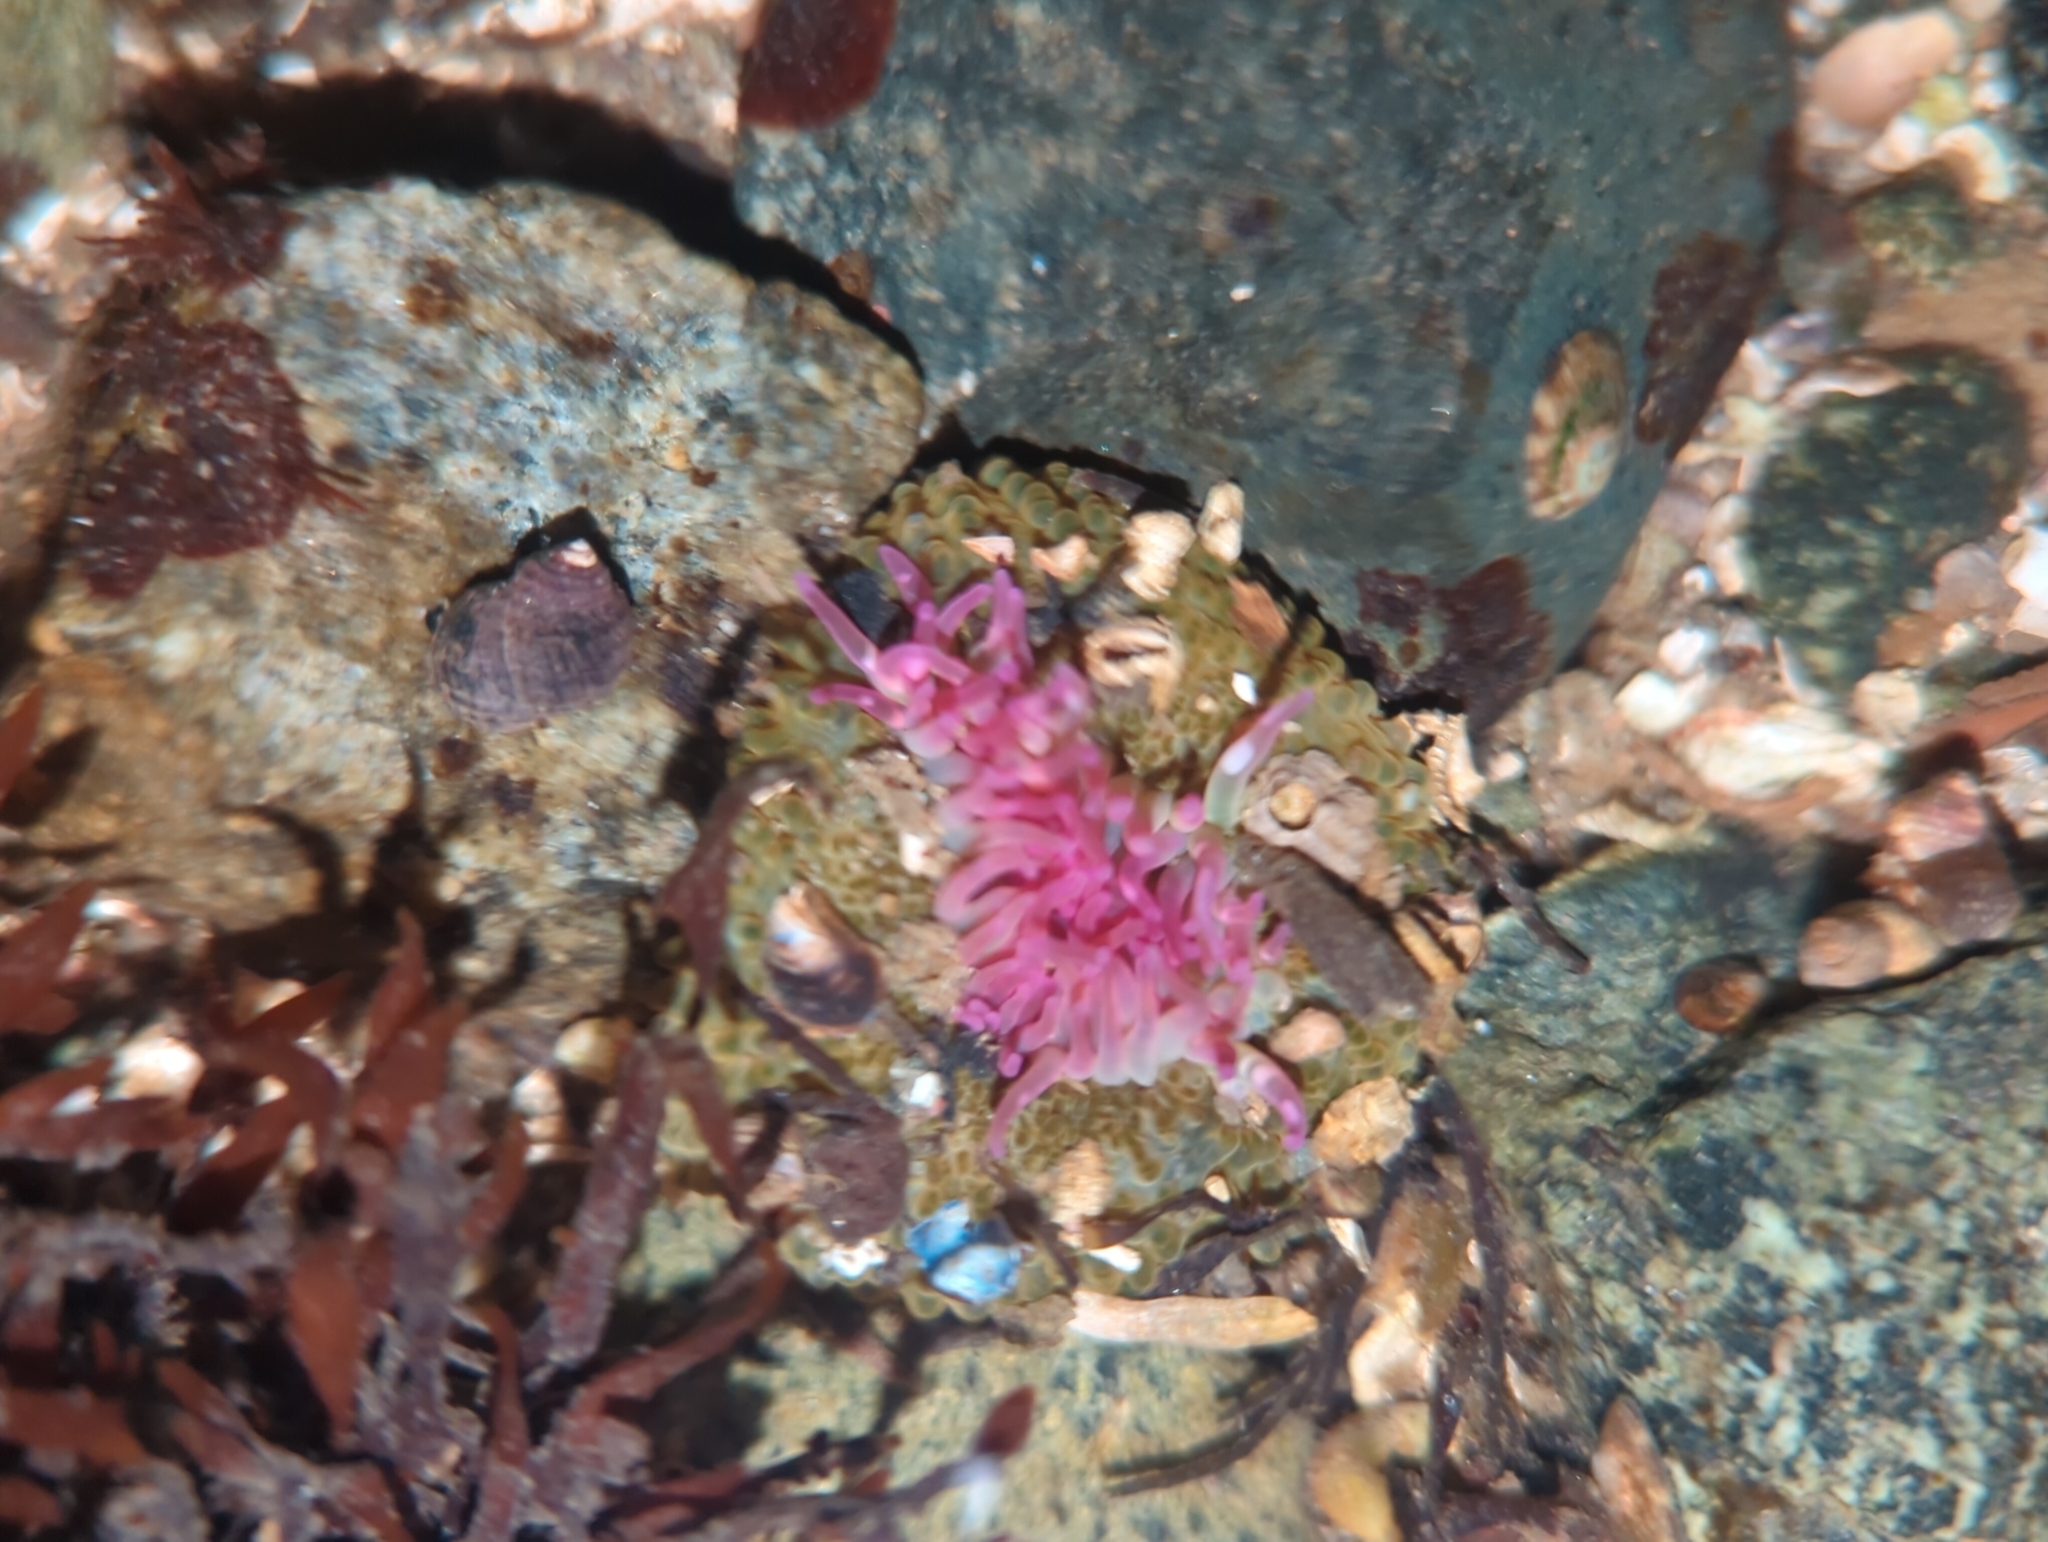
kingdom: Animalia
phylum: Cnidaria
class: Anthozoa
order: Actiniaria
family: Actiniidae
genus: Anthopleura
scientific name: Anthopleura elegantissima
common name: Clonal anemone
